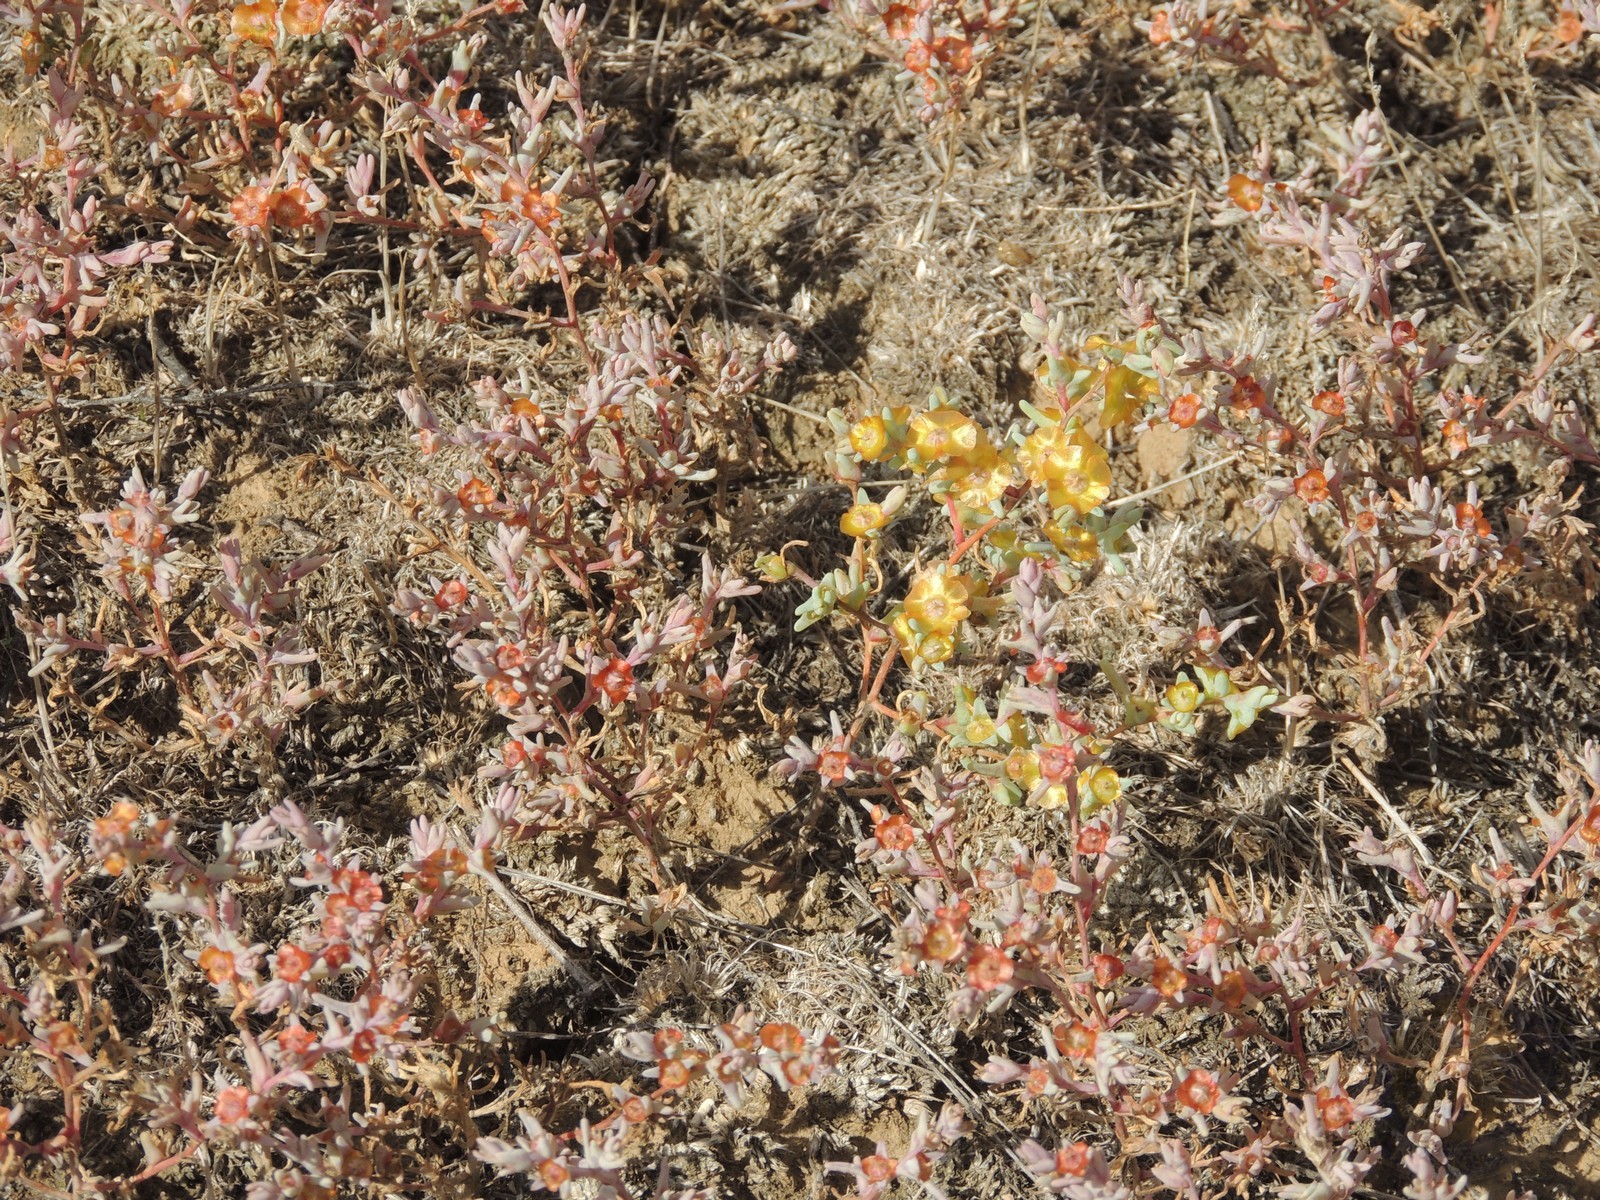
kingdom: Plantae
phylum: Tracheophyta
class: Magnoliopsida
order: Caryophyllales
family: Amaranthaceae
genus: Climacoptera
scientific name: Climacoptera crassa
